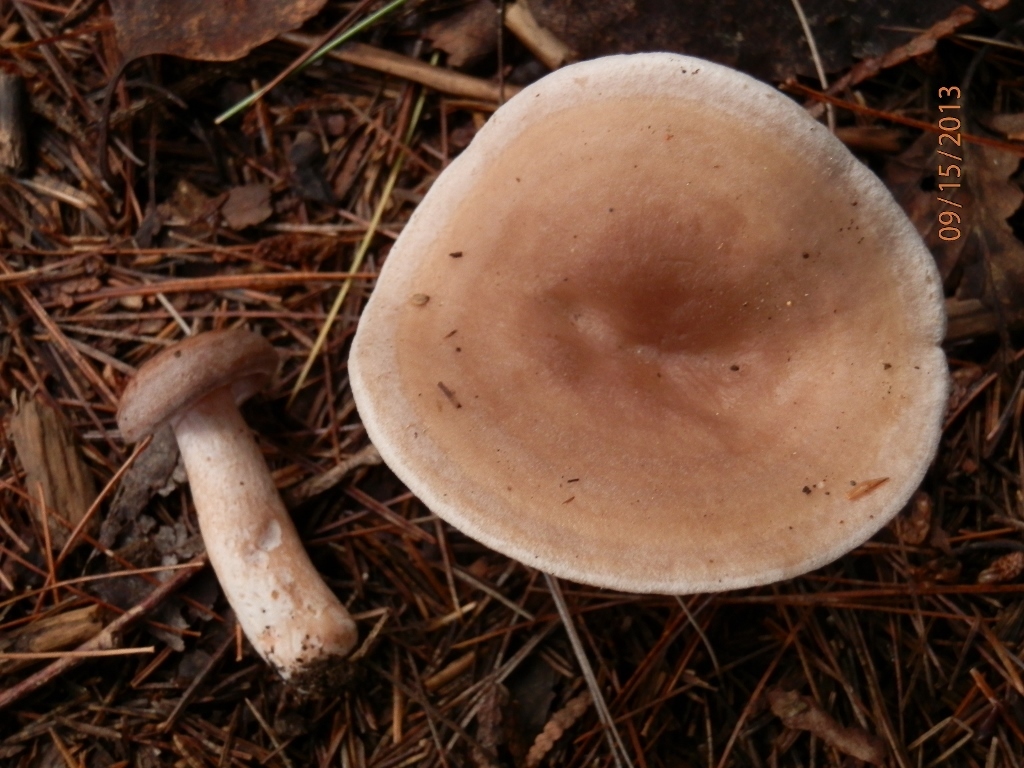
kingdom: Fungi
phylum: Basidiomycota
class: Agaricomycetes
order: Russulales
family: Russulaceae
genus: Lactarius
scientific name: Lactarius tabidus
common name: Birch milkcap
